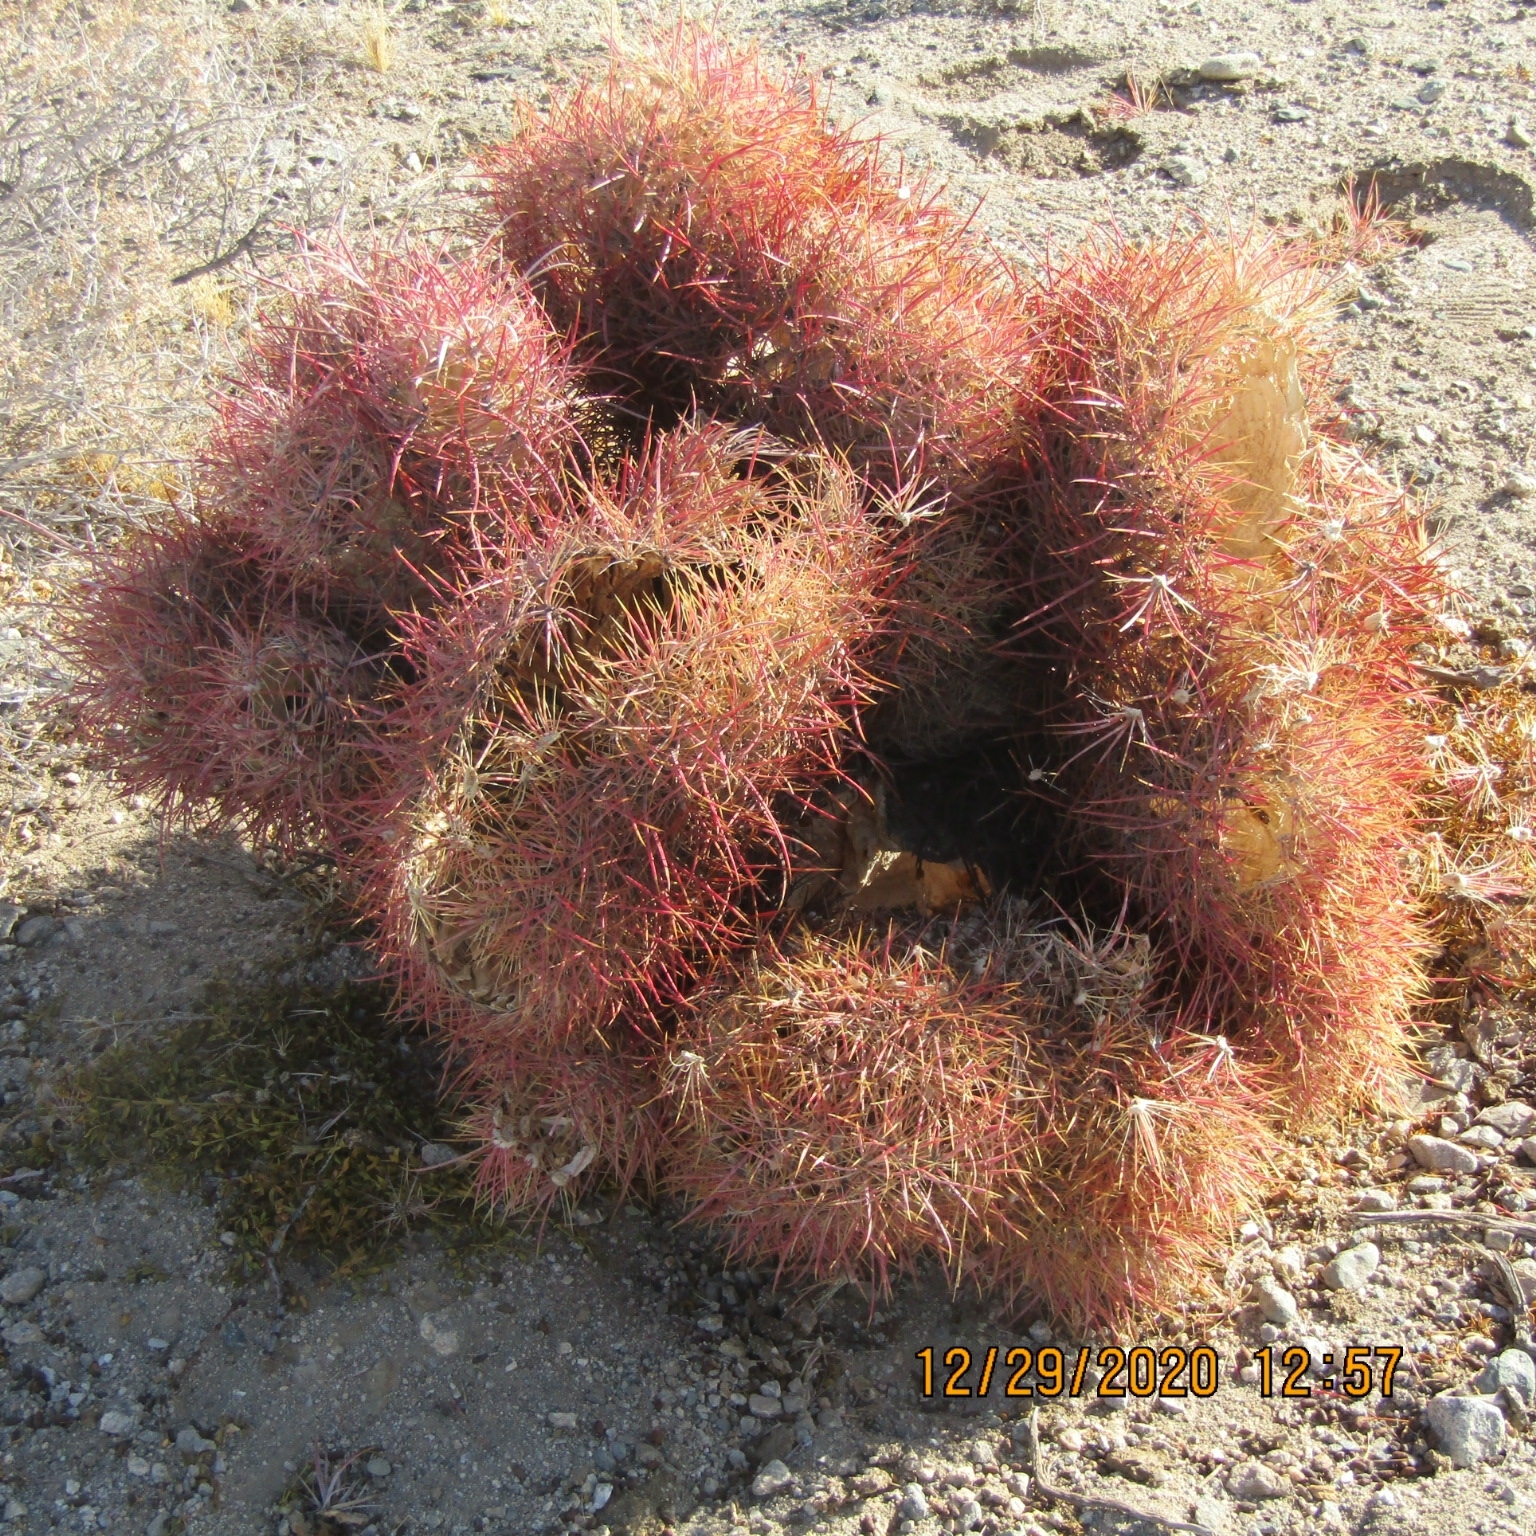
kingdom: Plantae
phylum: Tracheophyta
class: Magnoliopsida
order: Caryophyllales
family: Cactaceae
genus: Ferocactus
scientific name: Ferocactus cylindraceus
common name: California barrel cactus
